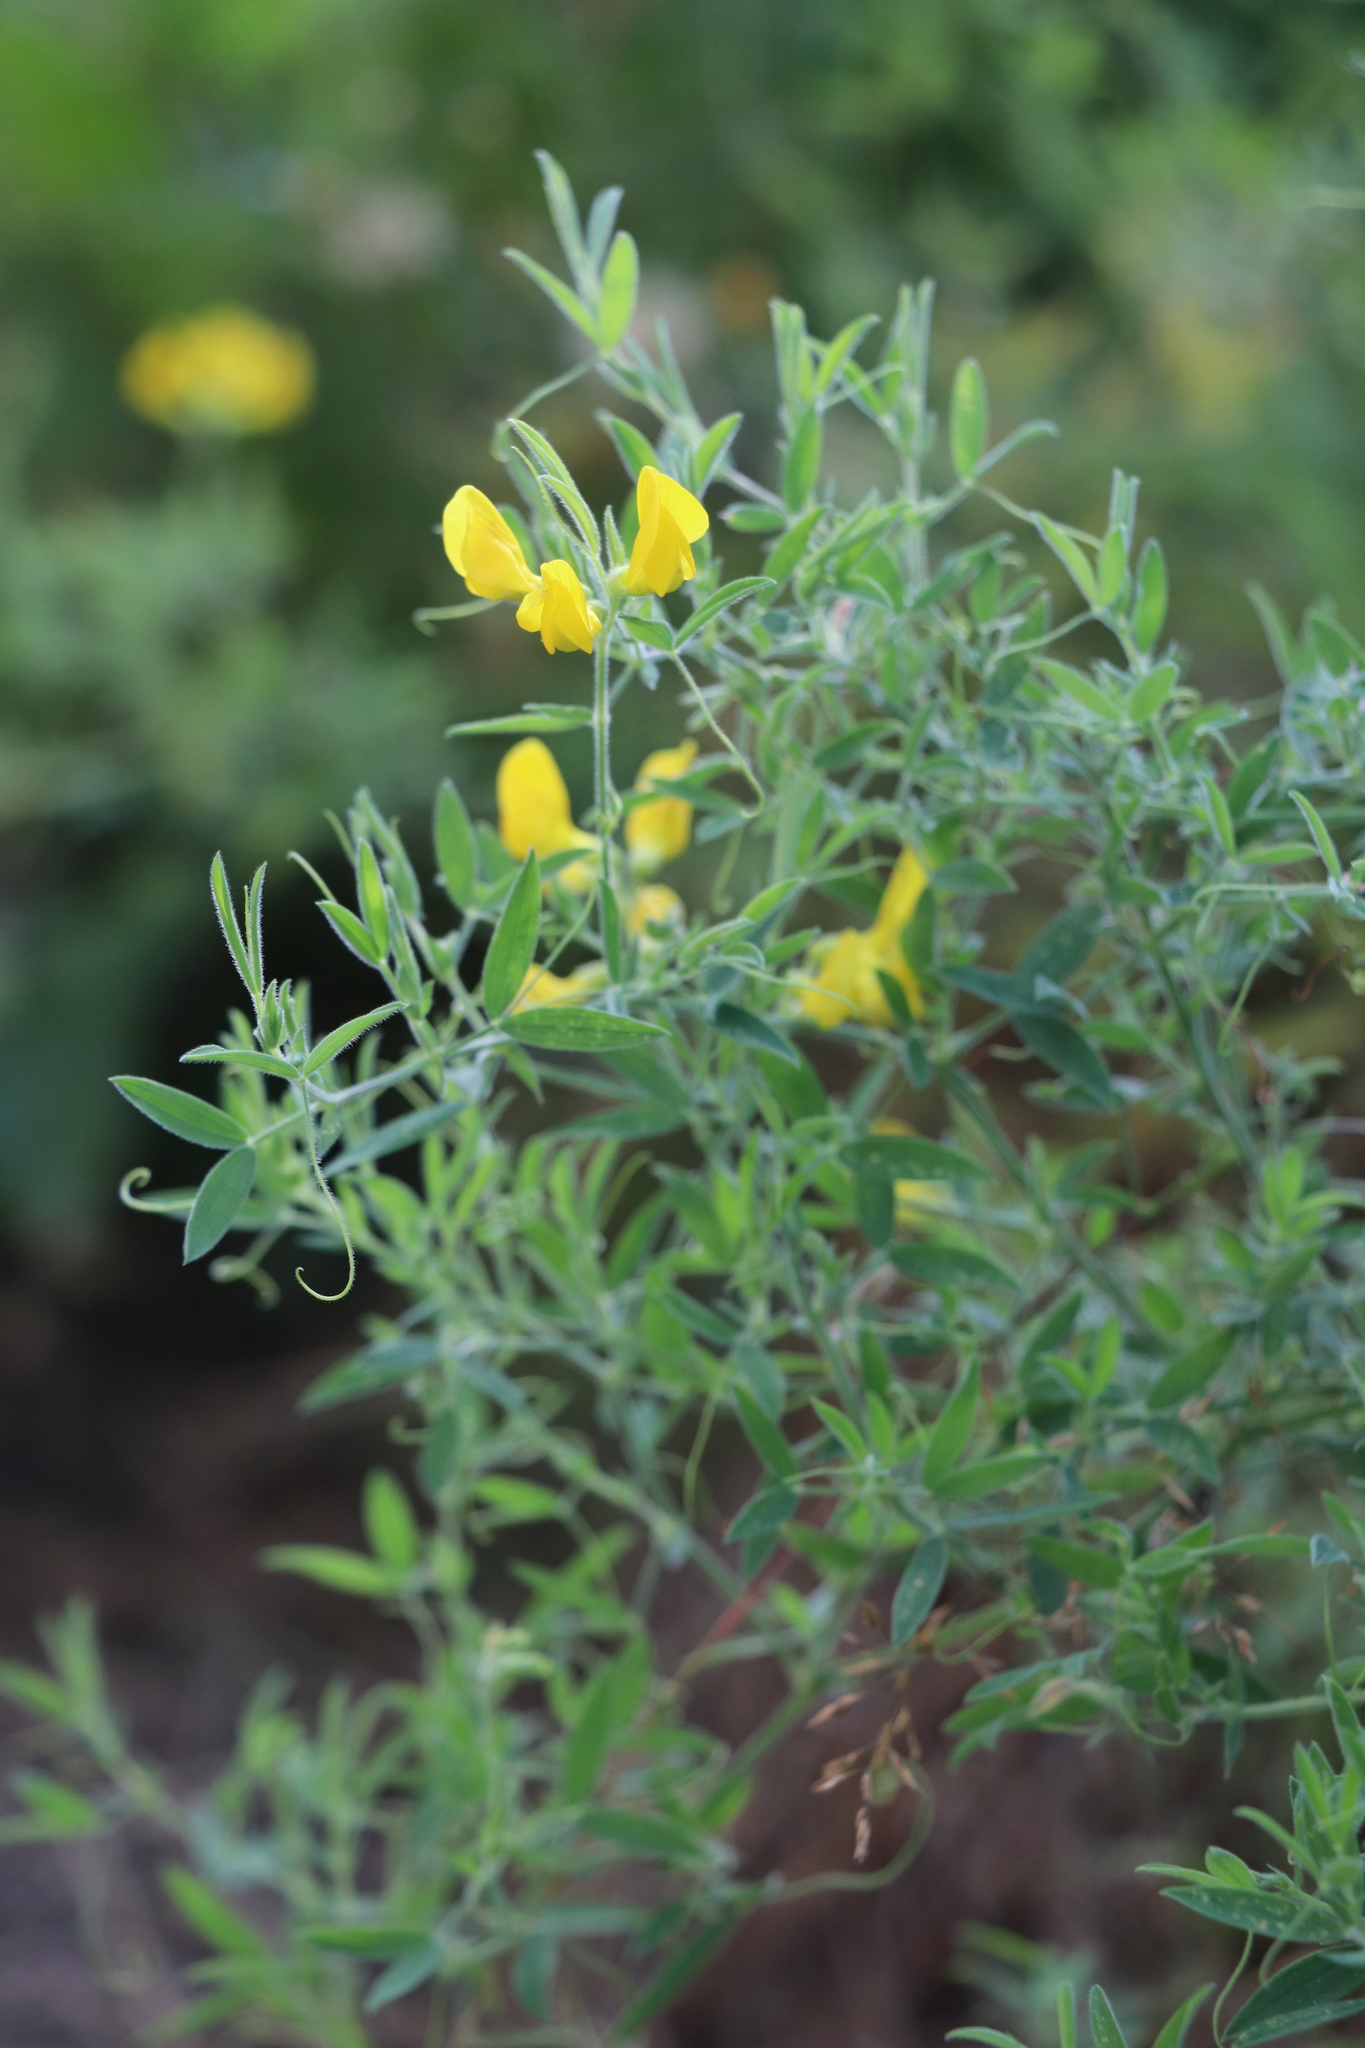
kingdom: Plantae
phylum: Tracheophyta
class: Magnoliopsida
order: Fabales
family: Fabaceae
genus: Lathyrus
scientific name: Lathyrus pratensis
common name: Meadow vetchling
